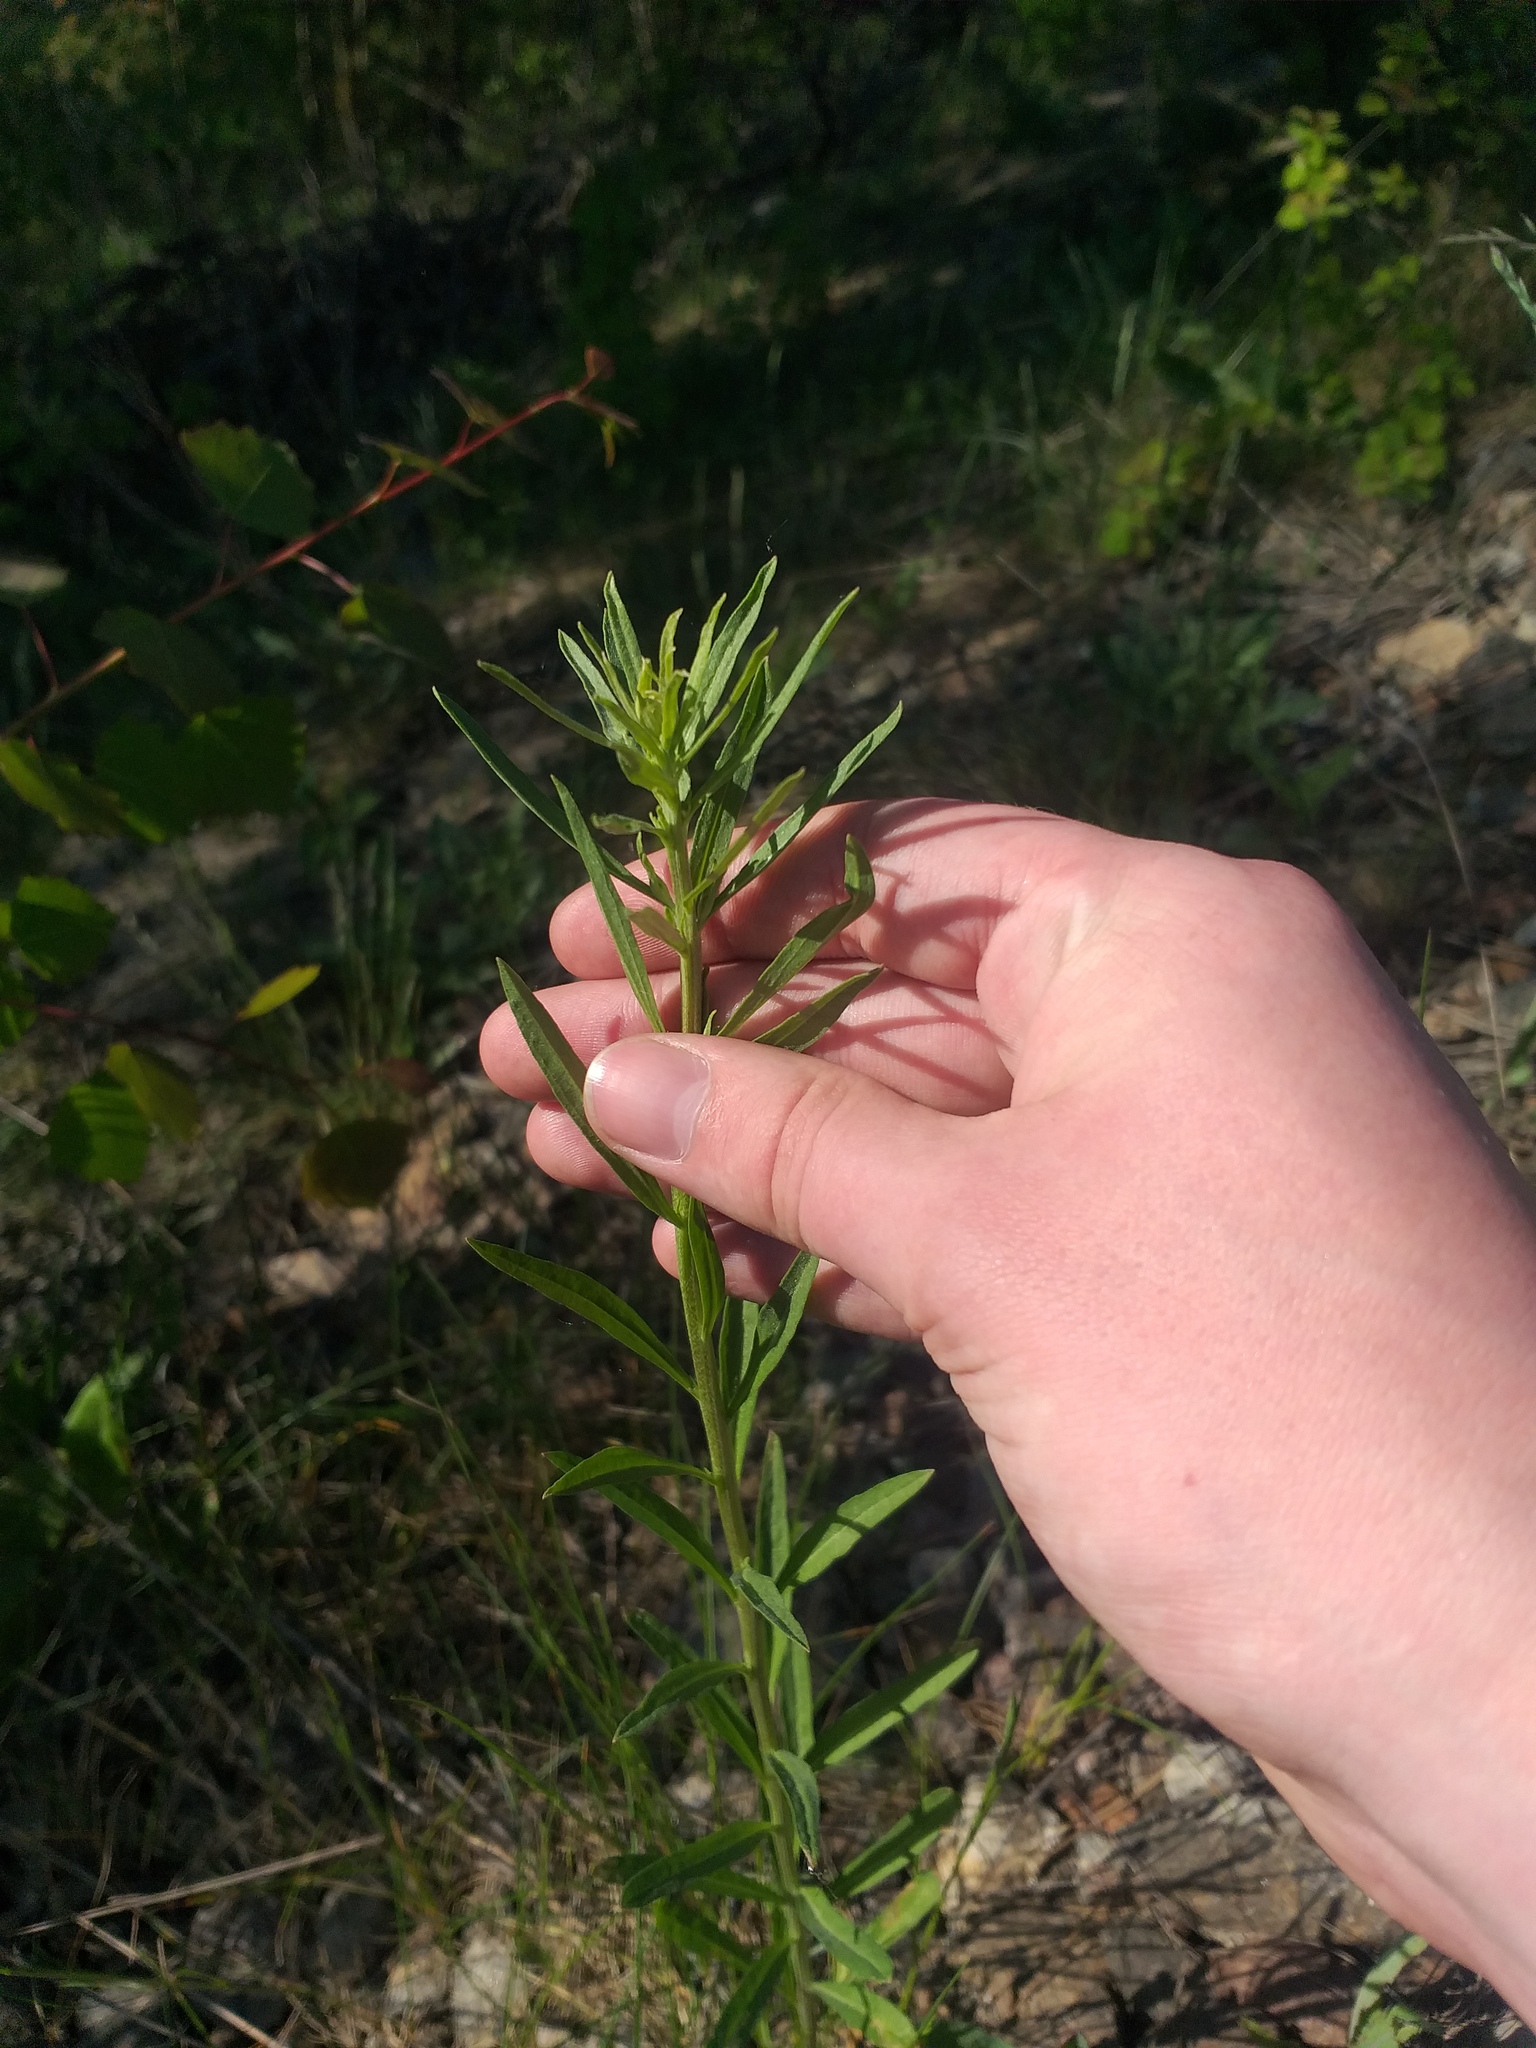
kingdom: Plantae
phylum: Tracheophyta
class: Magnoliopsida
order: Brassicales
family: Brassicaceae
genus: Erysimum
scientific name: Erysimum hieraciifolium
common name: European wallflower
